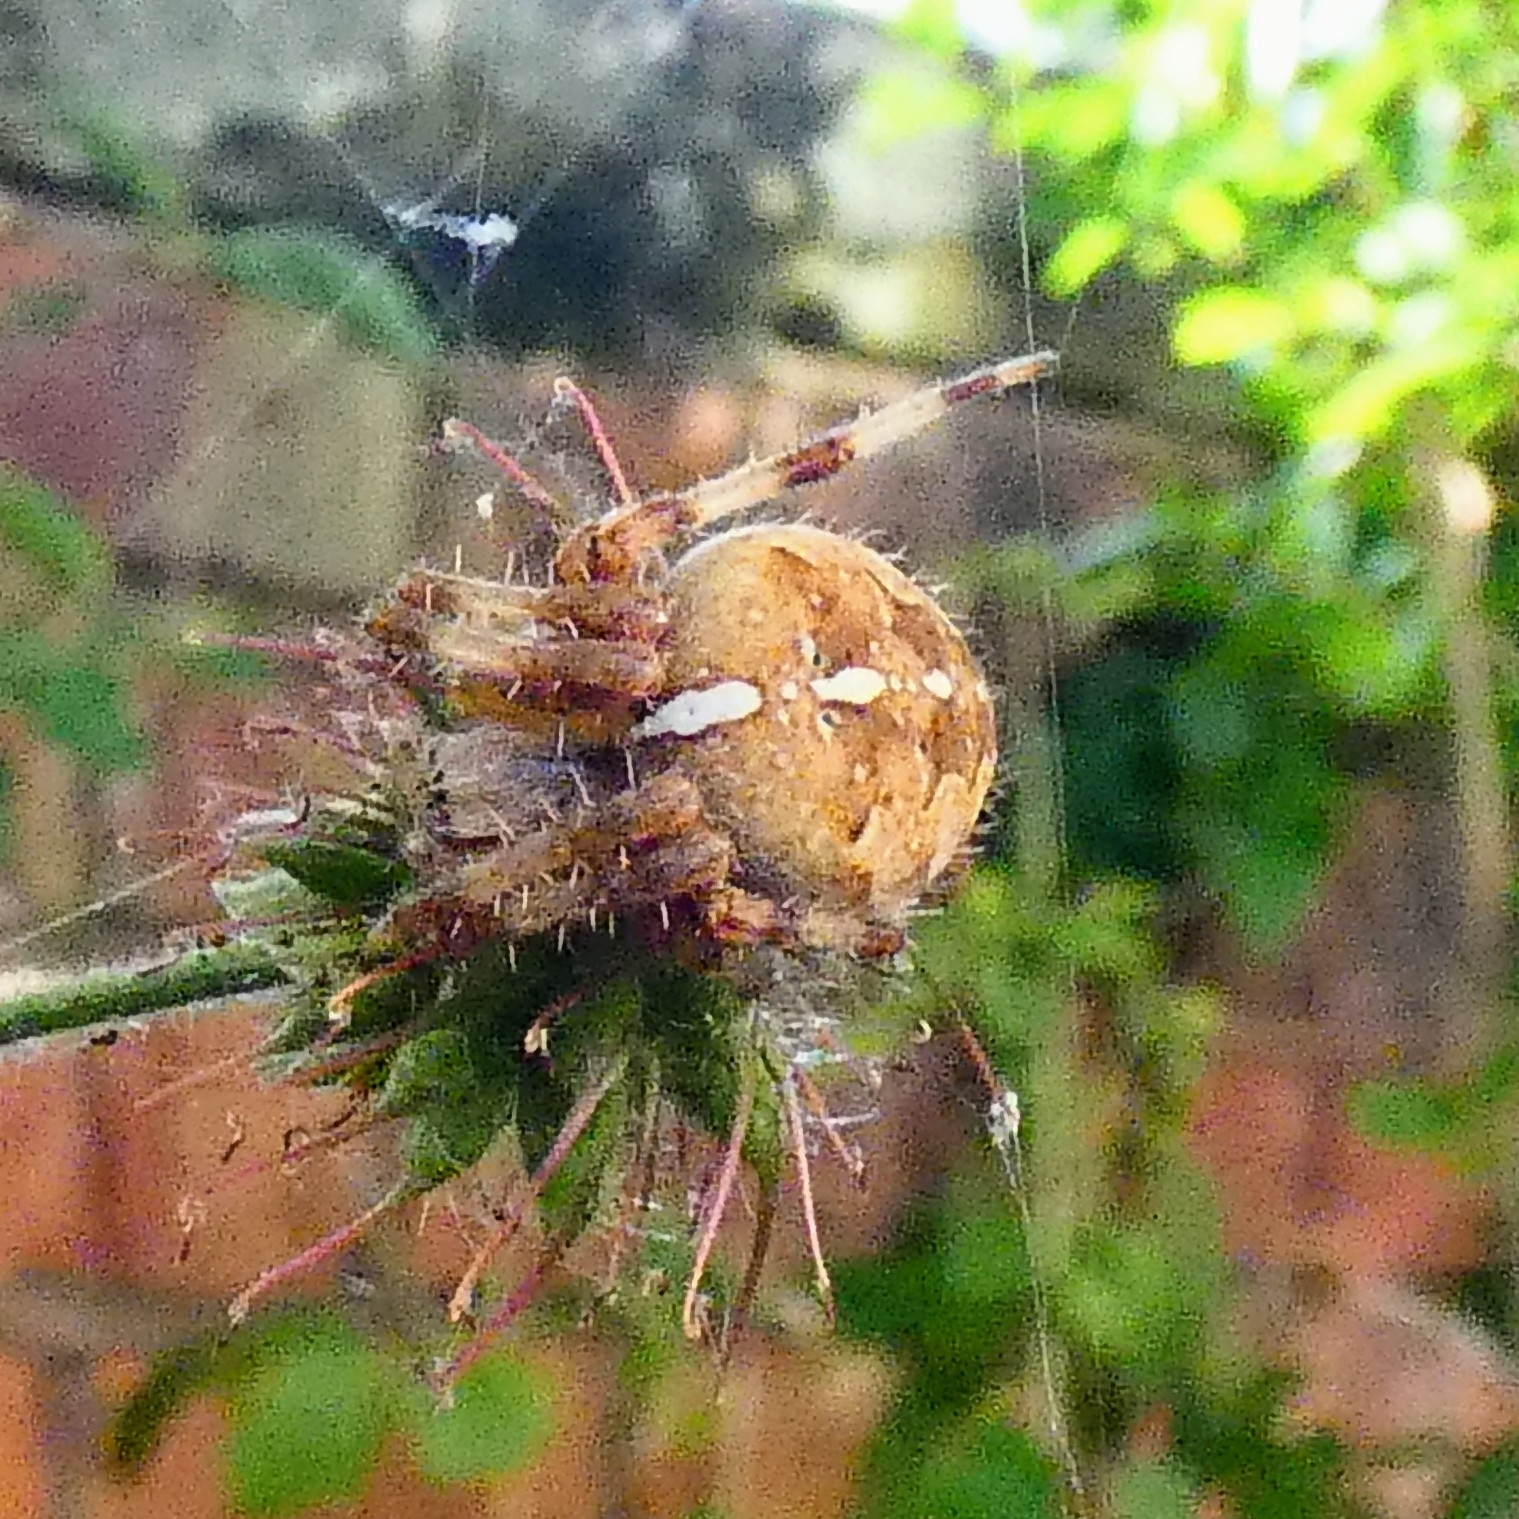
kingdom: Animalia
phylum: Arthropoda
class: Arachnida
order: Araneae
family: Araneidae
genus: Araneus
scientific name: Araneus diadematus
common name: Cross orbweaver
